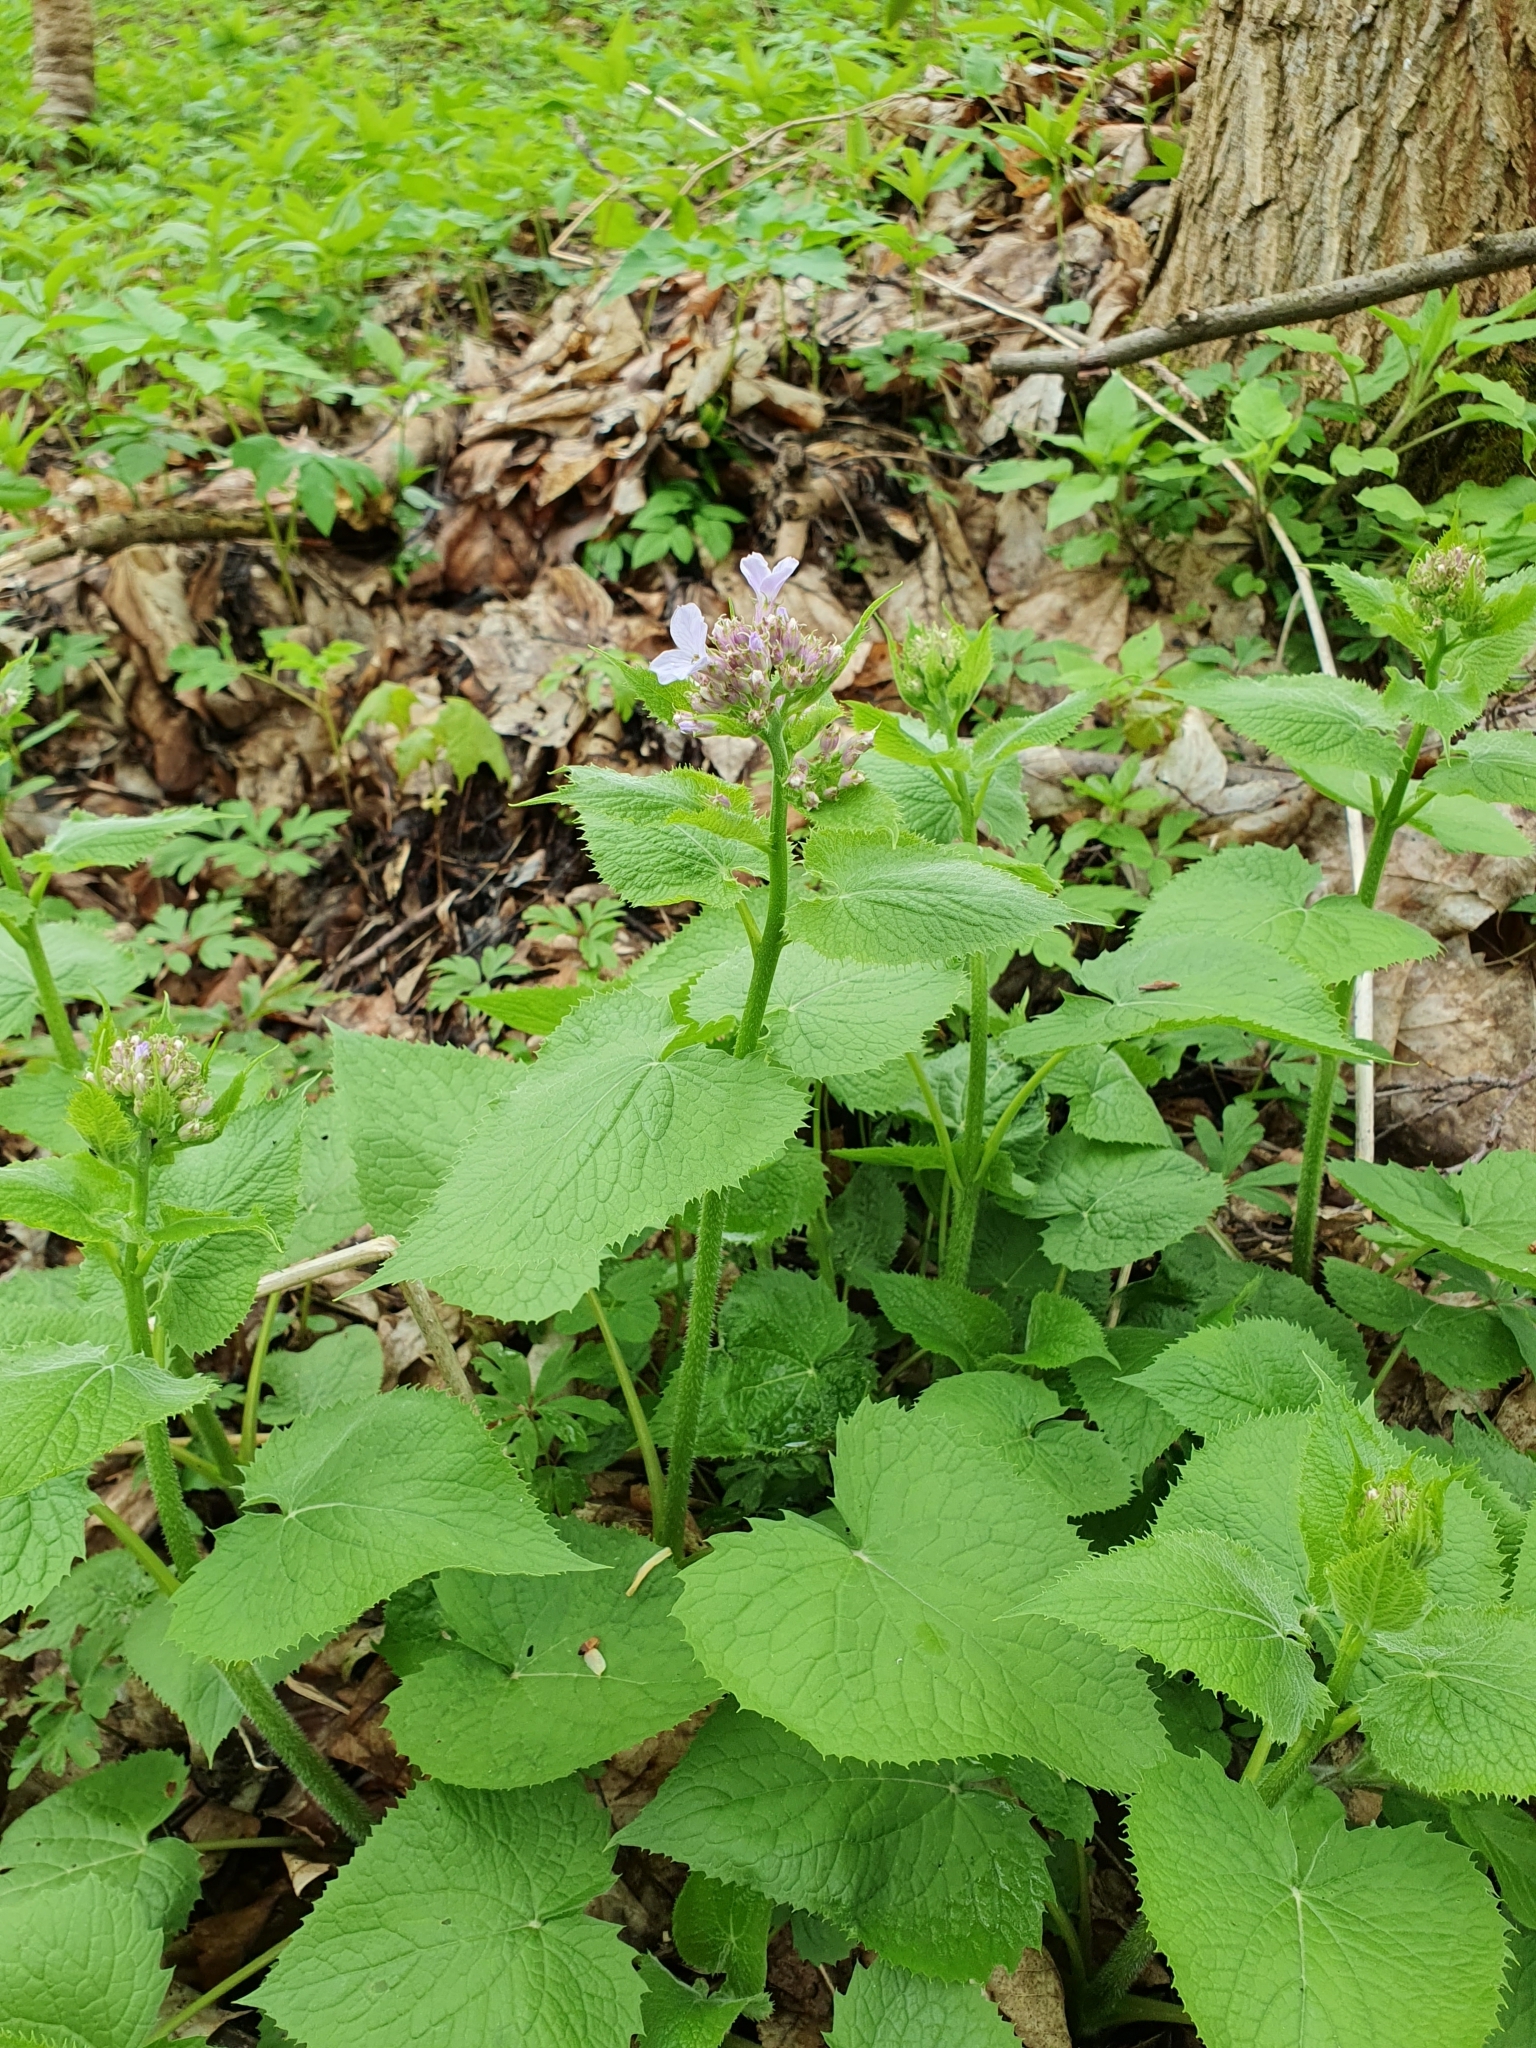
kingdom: Plantae
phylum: Tracheophyta
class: Magnoliopsida
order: Brassicales
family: Brassicaceae
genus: Lunaria
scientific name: Lunaria rediviva
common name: Perennial honesty
